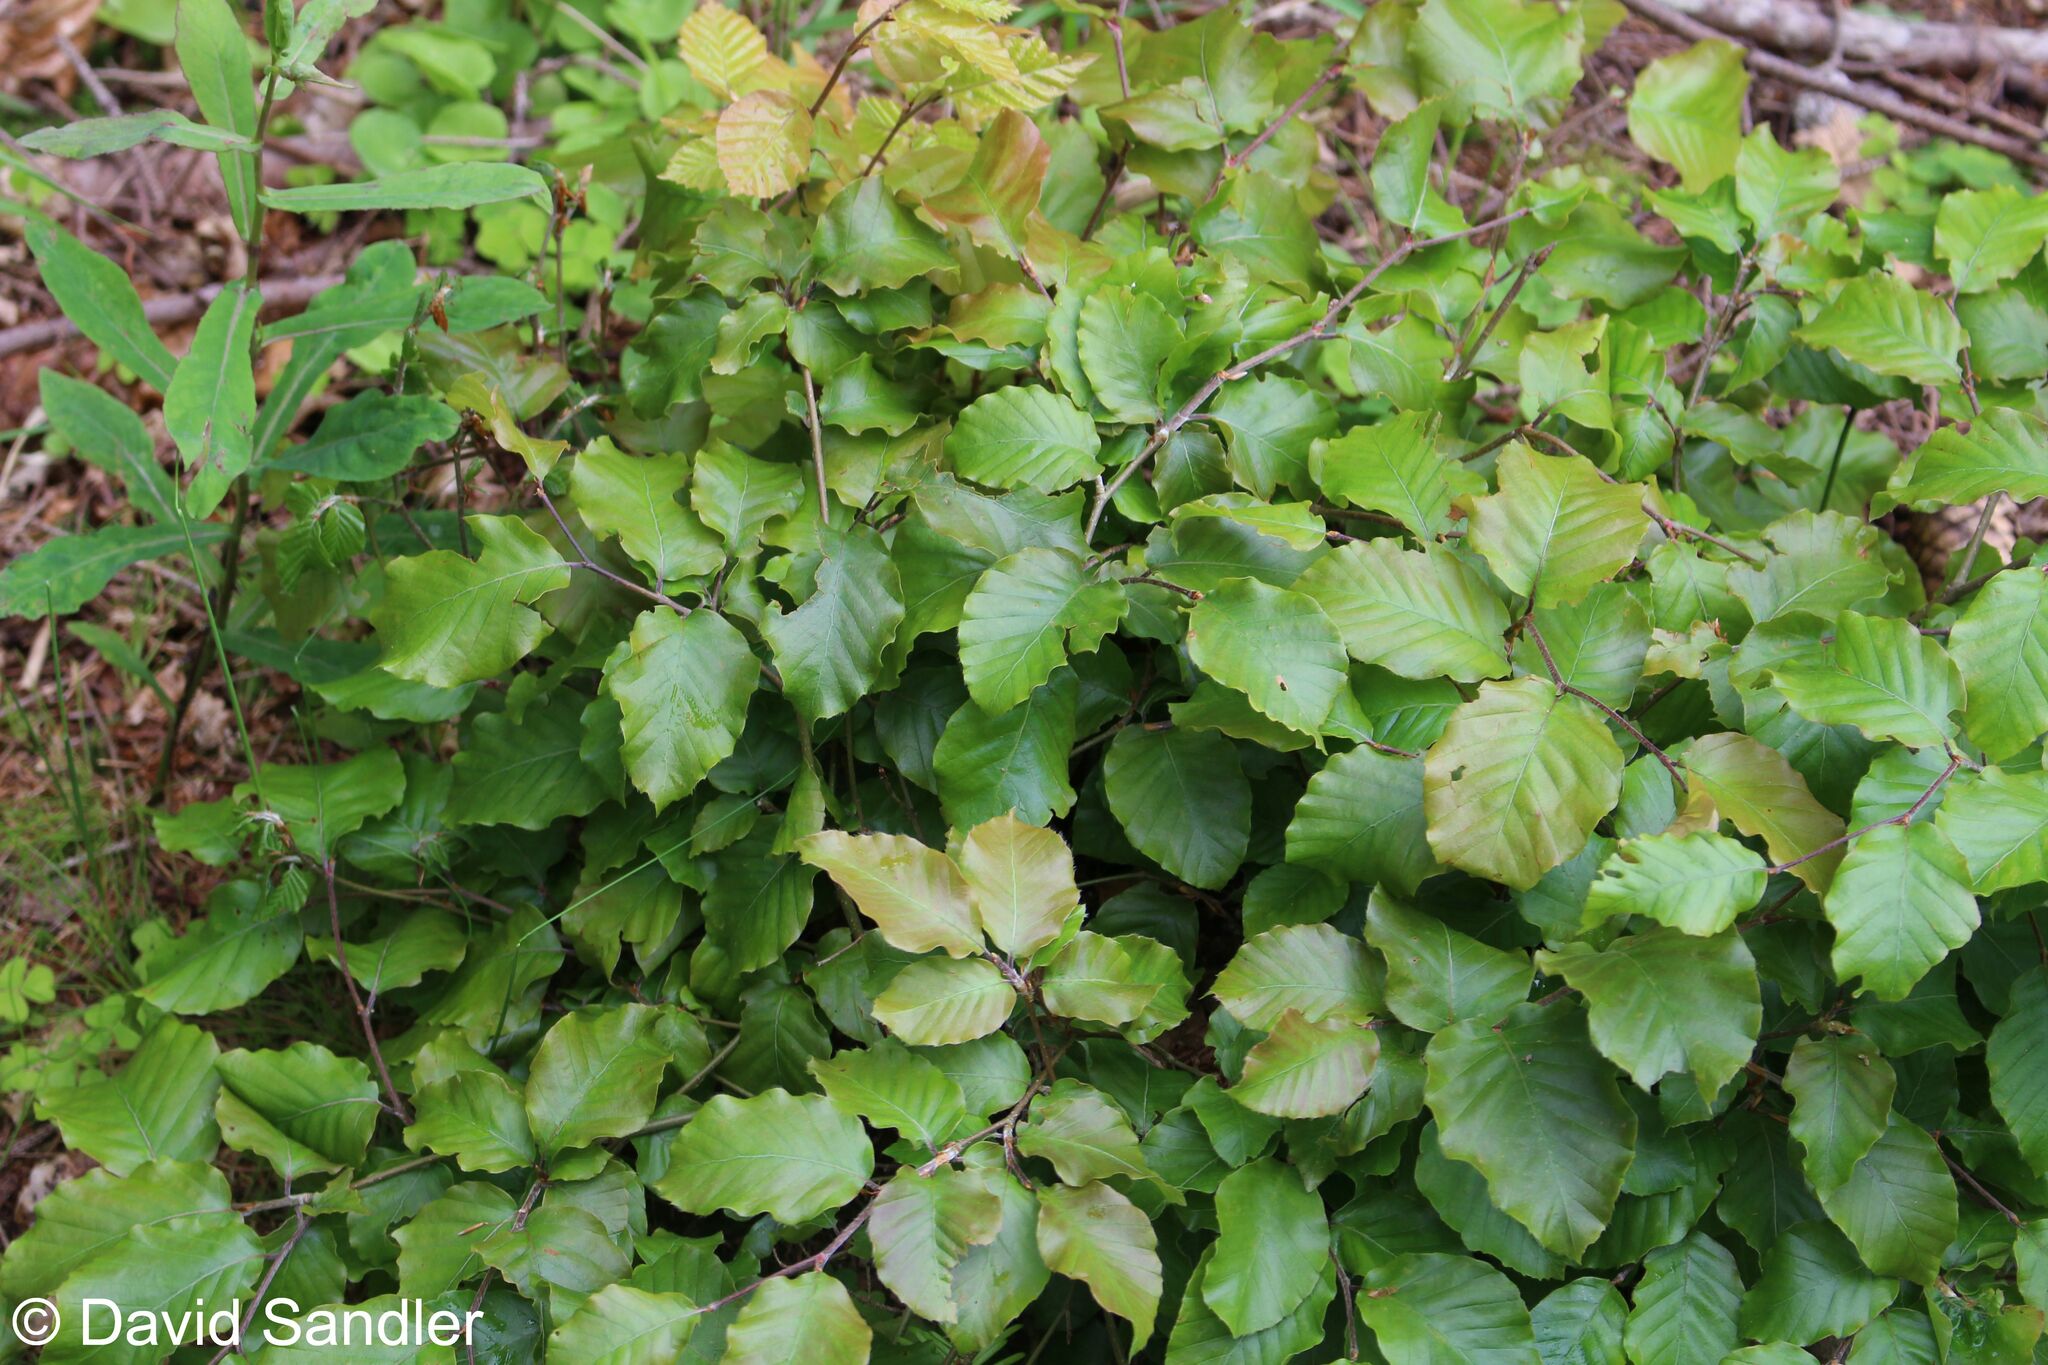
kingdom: Plantae
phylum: Tracheophyta
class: Magnoliopsida
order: Fagales
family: Fagaceae
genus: Fagus
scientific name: Fagus sylvatica
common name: Beech
